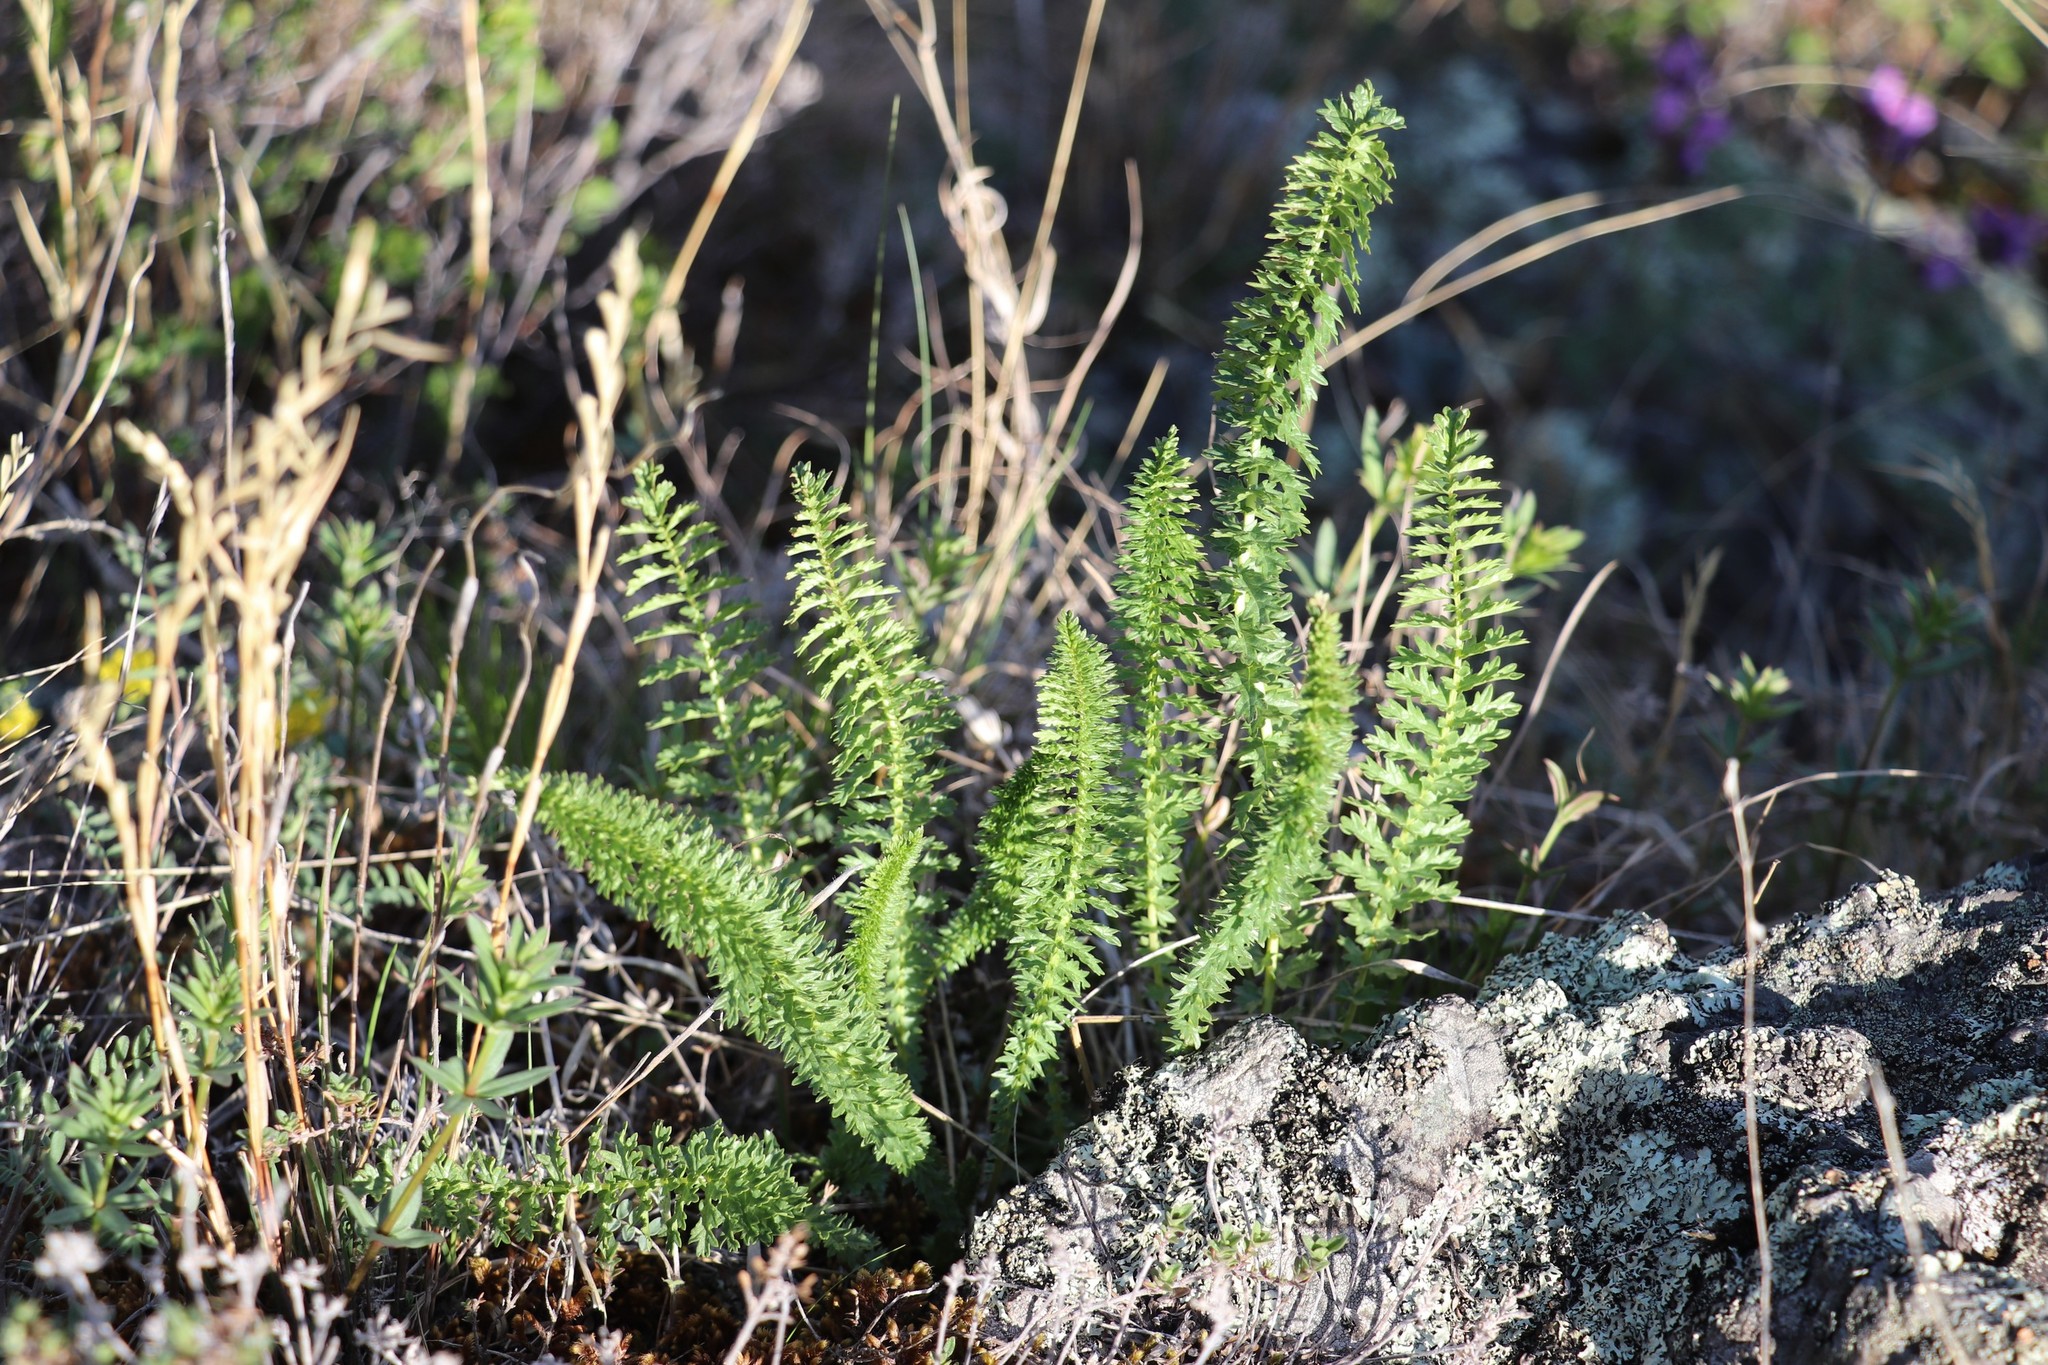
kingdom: Plantae
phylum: Tracheophyta
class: Magnoliopsida
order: Rosales
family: Rosaceae
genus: Filipendula
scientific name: Filipendula vulgaris
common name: Dropwort
